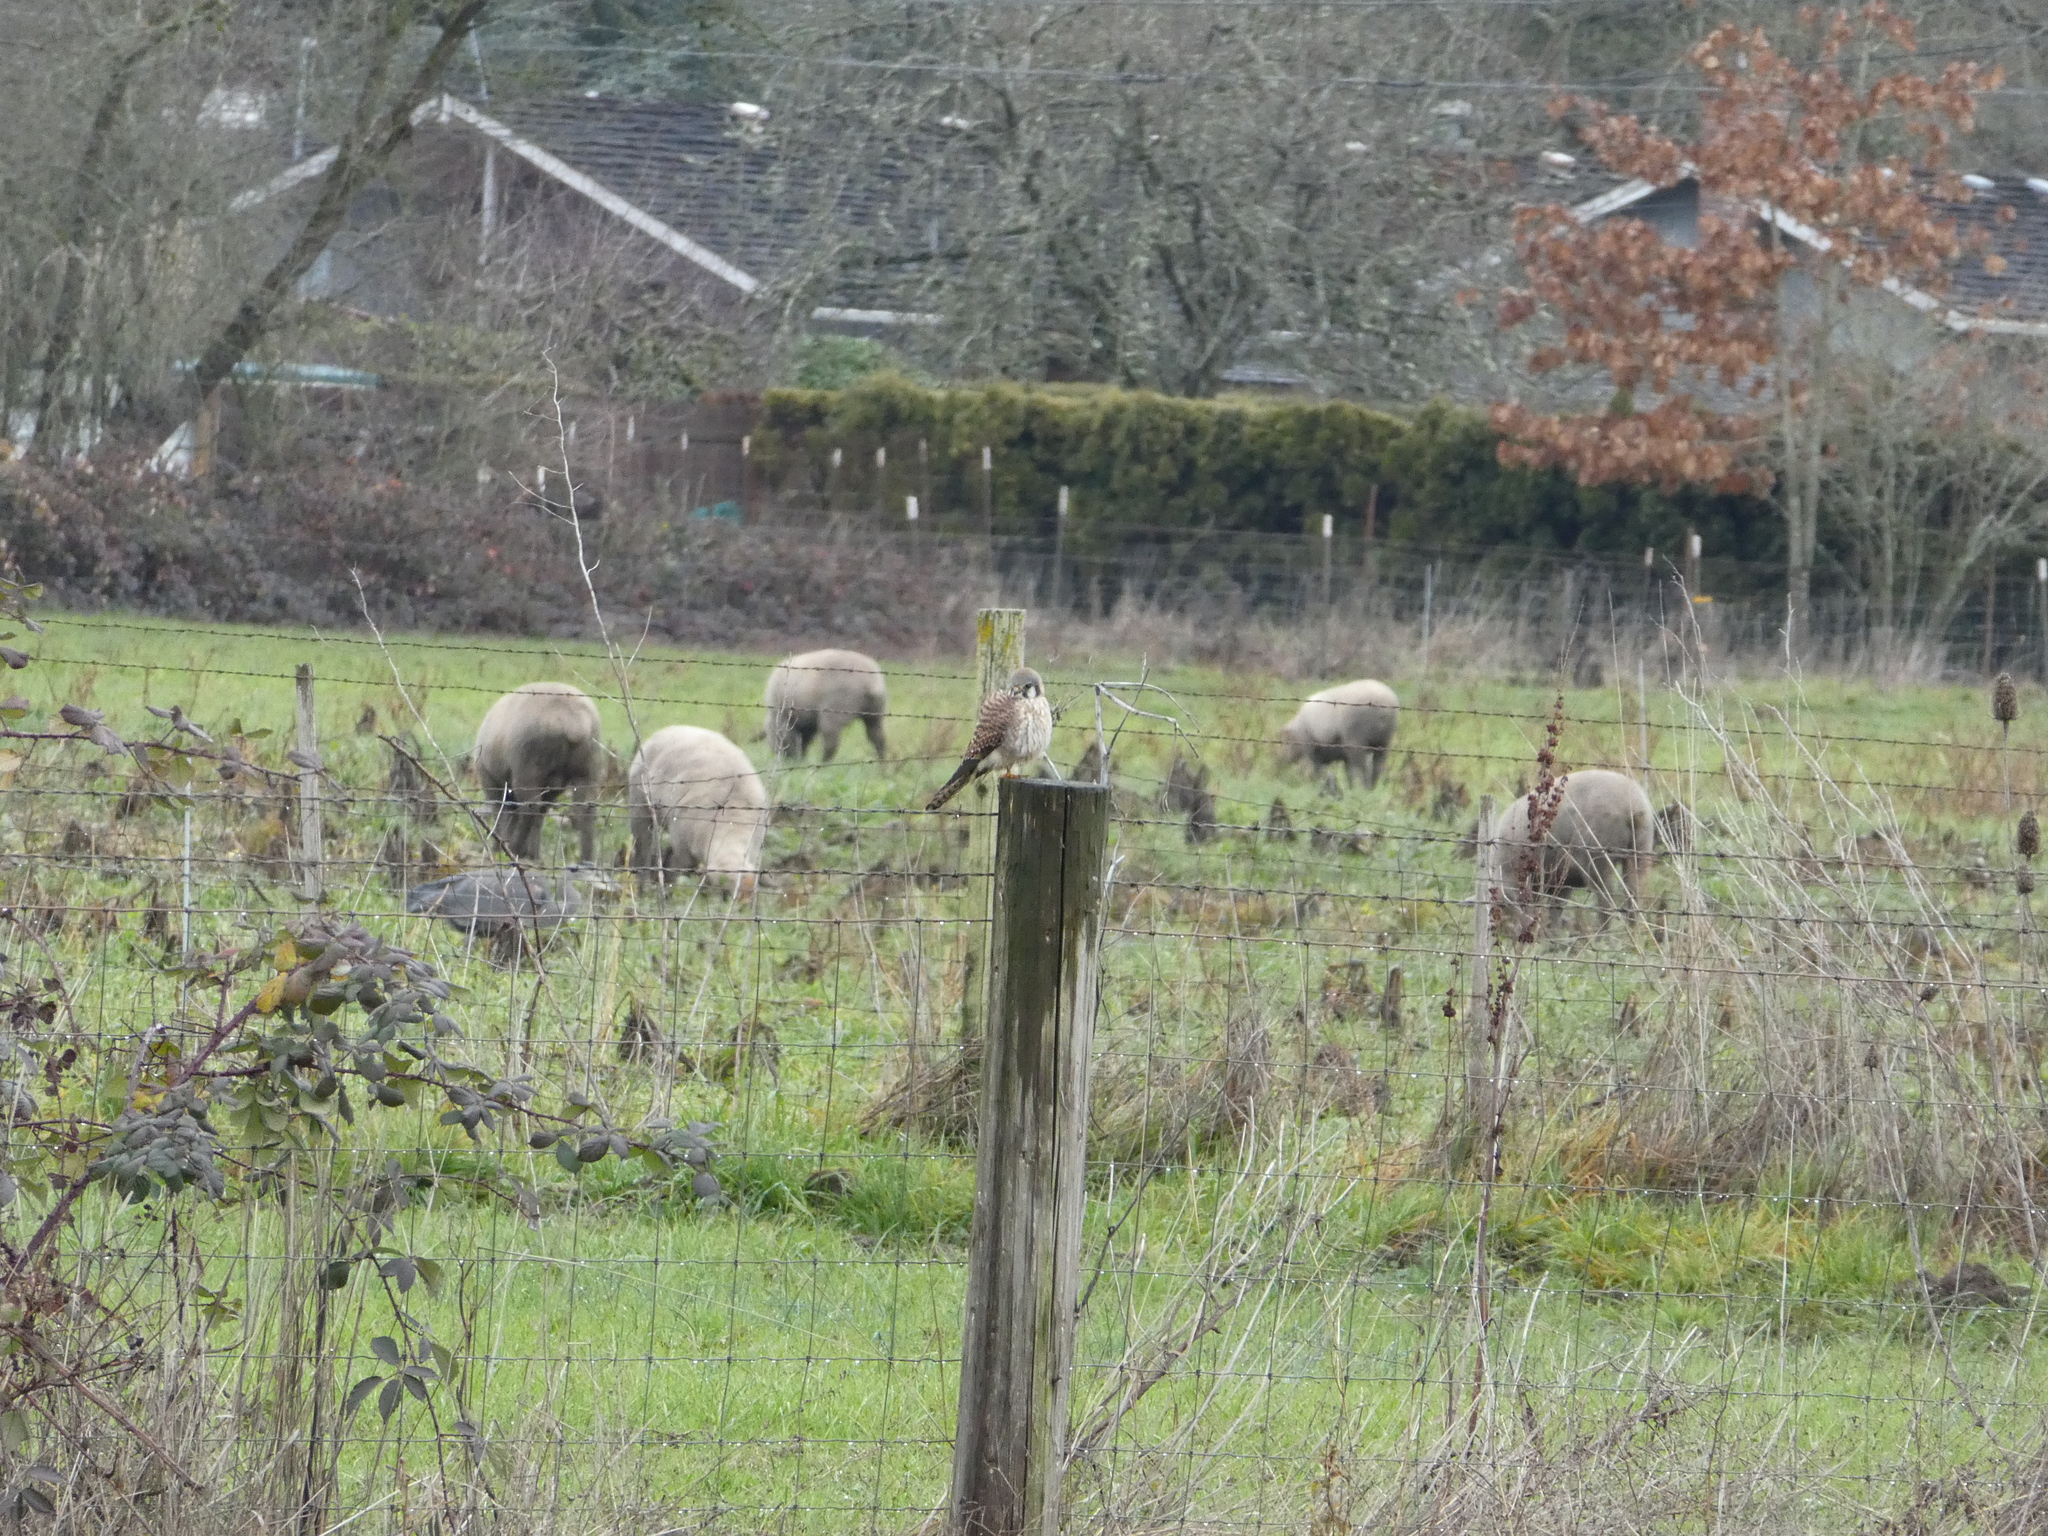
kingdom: Animalia
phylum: Chordata
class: Aves
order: Falconiformes
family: Falconidae
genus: Falco
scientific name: Falco sparverius
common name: American kestrel
